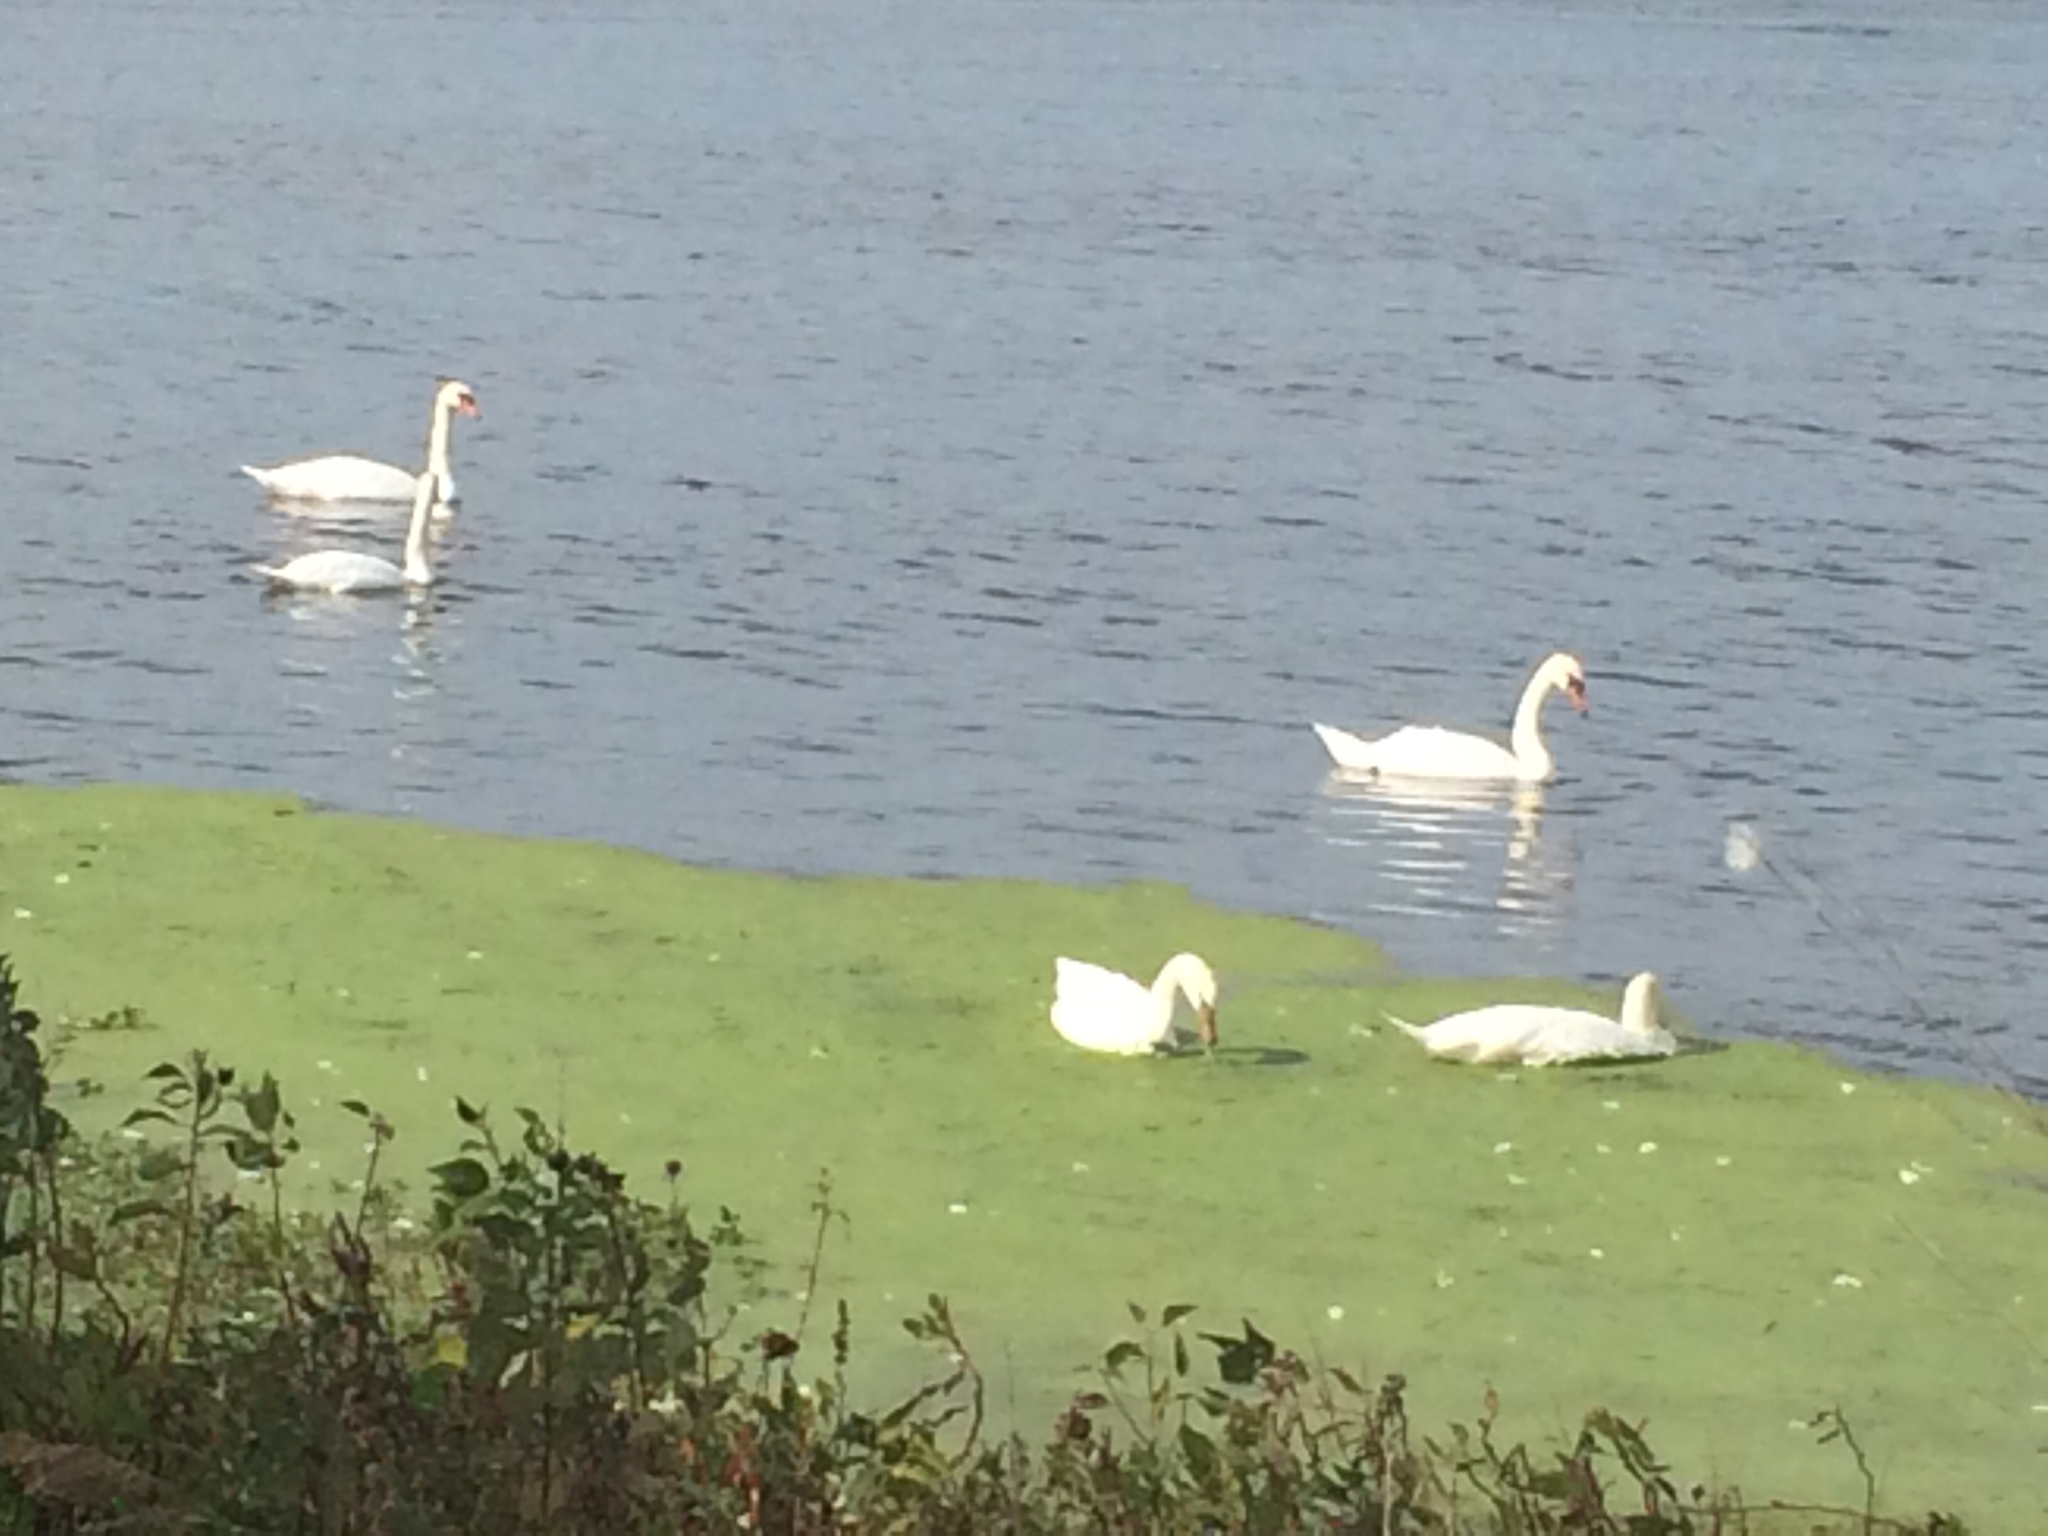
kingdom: Animalia
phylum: Chordata
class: Aves
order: Anseriformes
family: Anatidae
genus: Cygnus
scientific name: Cygnus olor
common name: Mute swan
